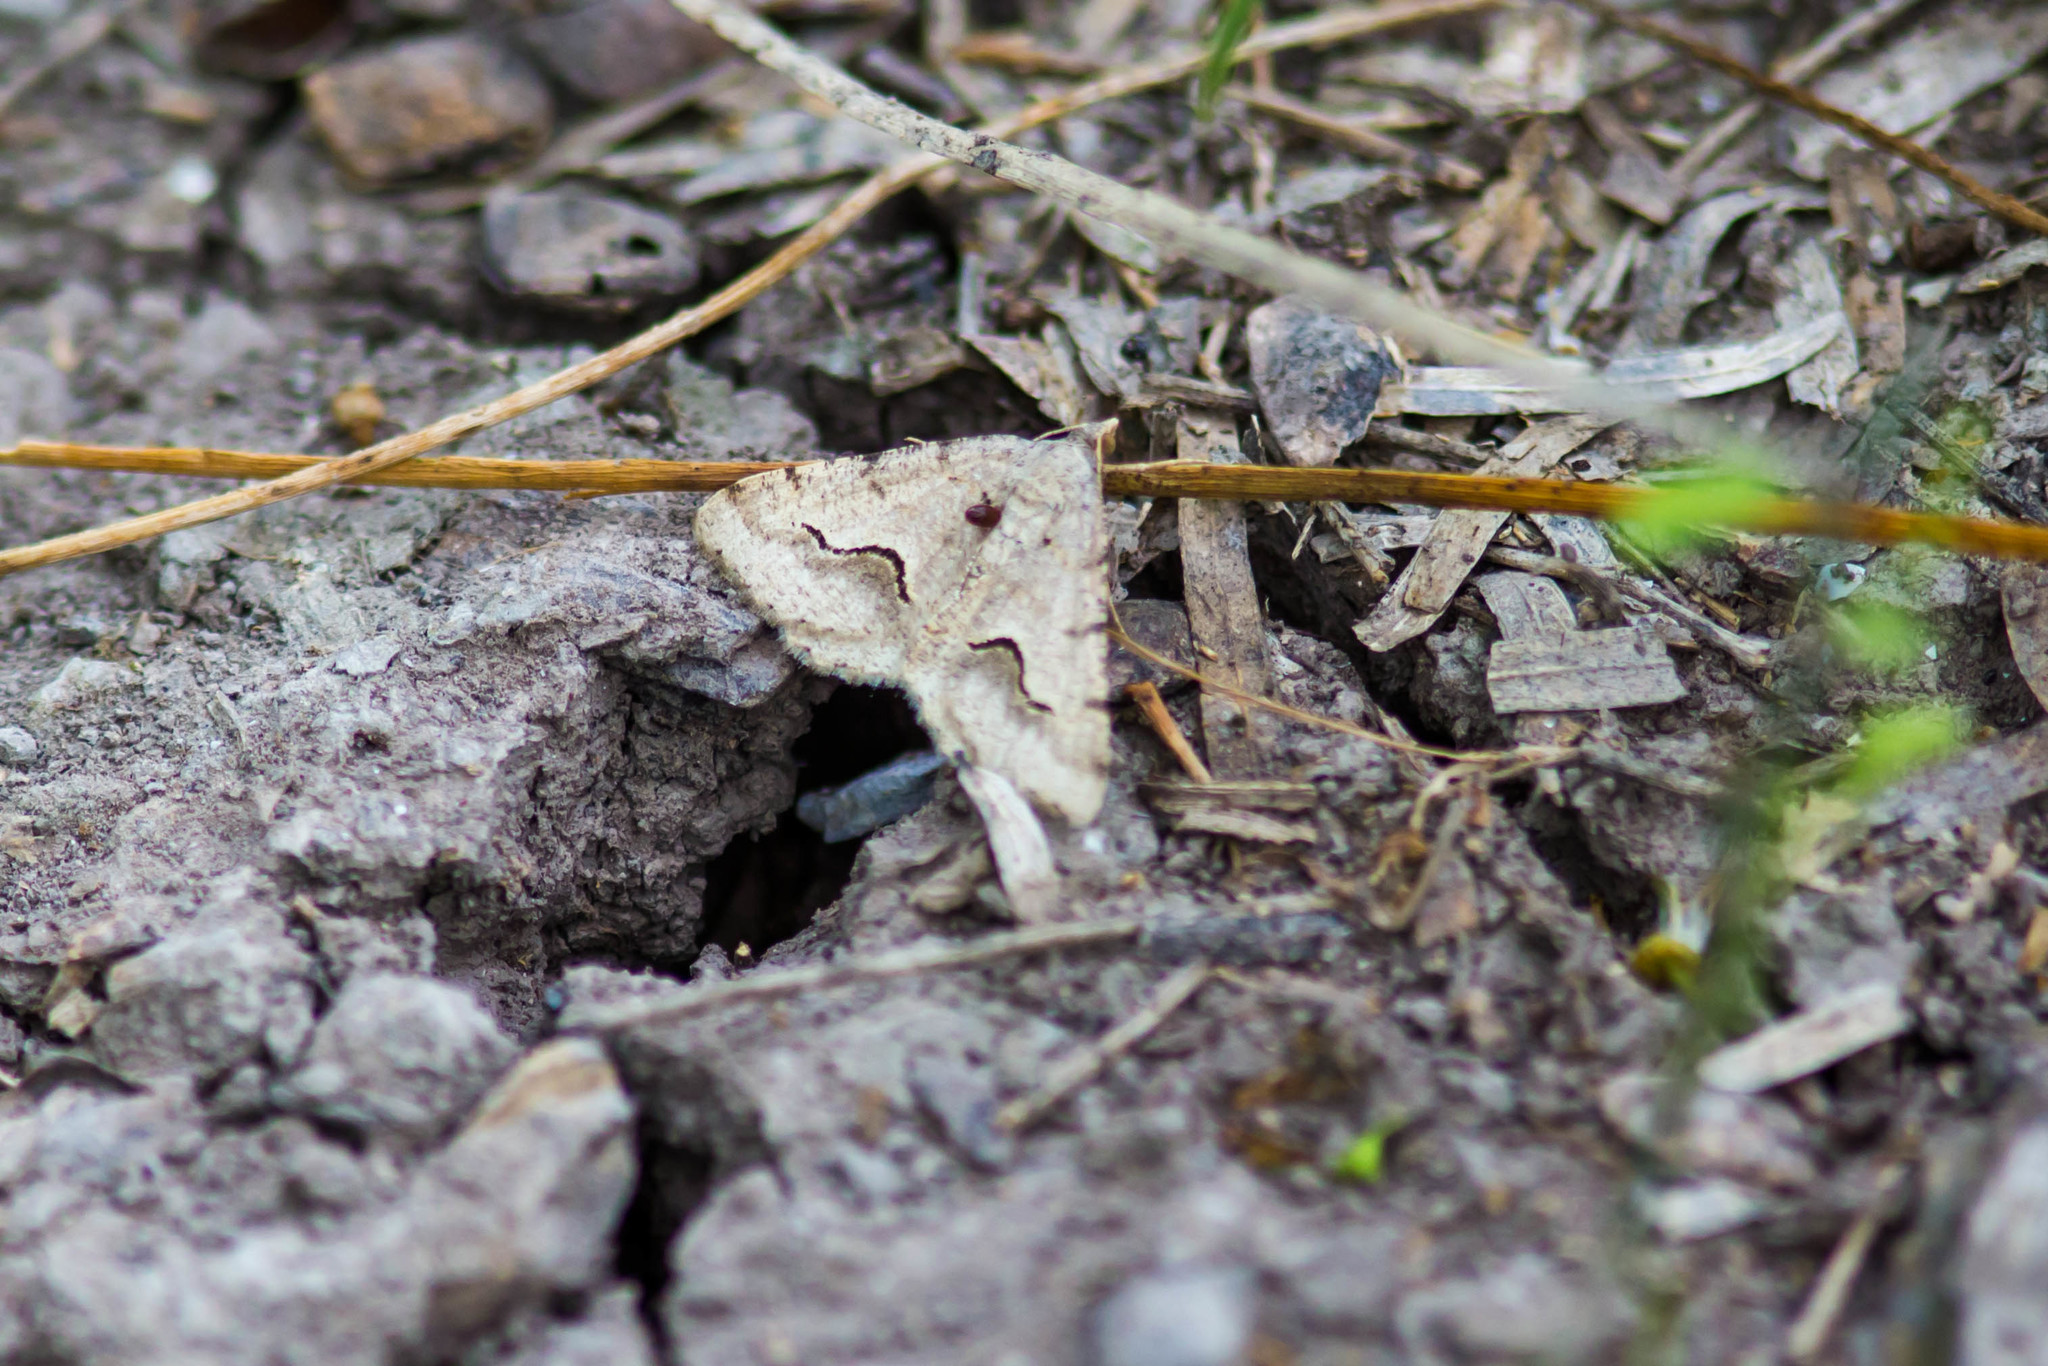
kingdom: Animalia
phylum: Arthropoda
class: Insecta
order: Lepidoptera
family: Geometridae
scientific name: Geometridae
